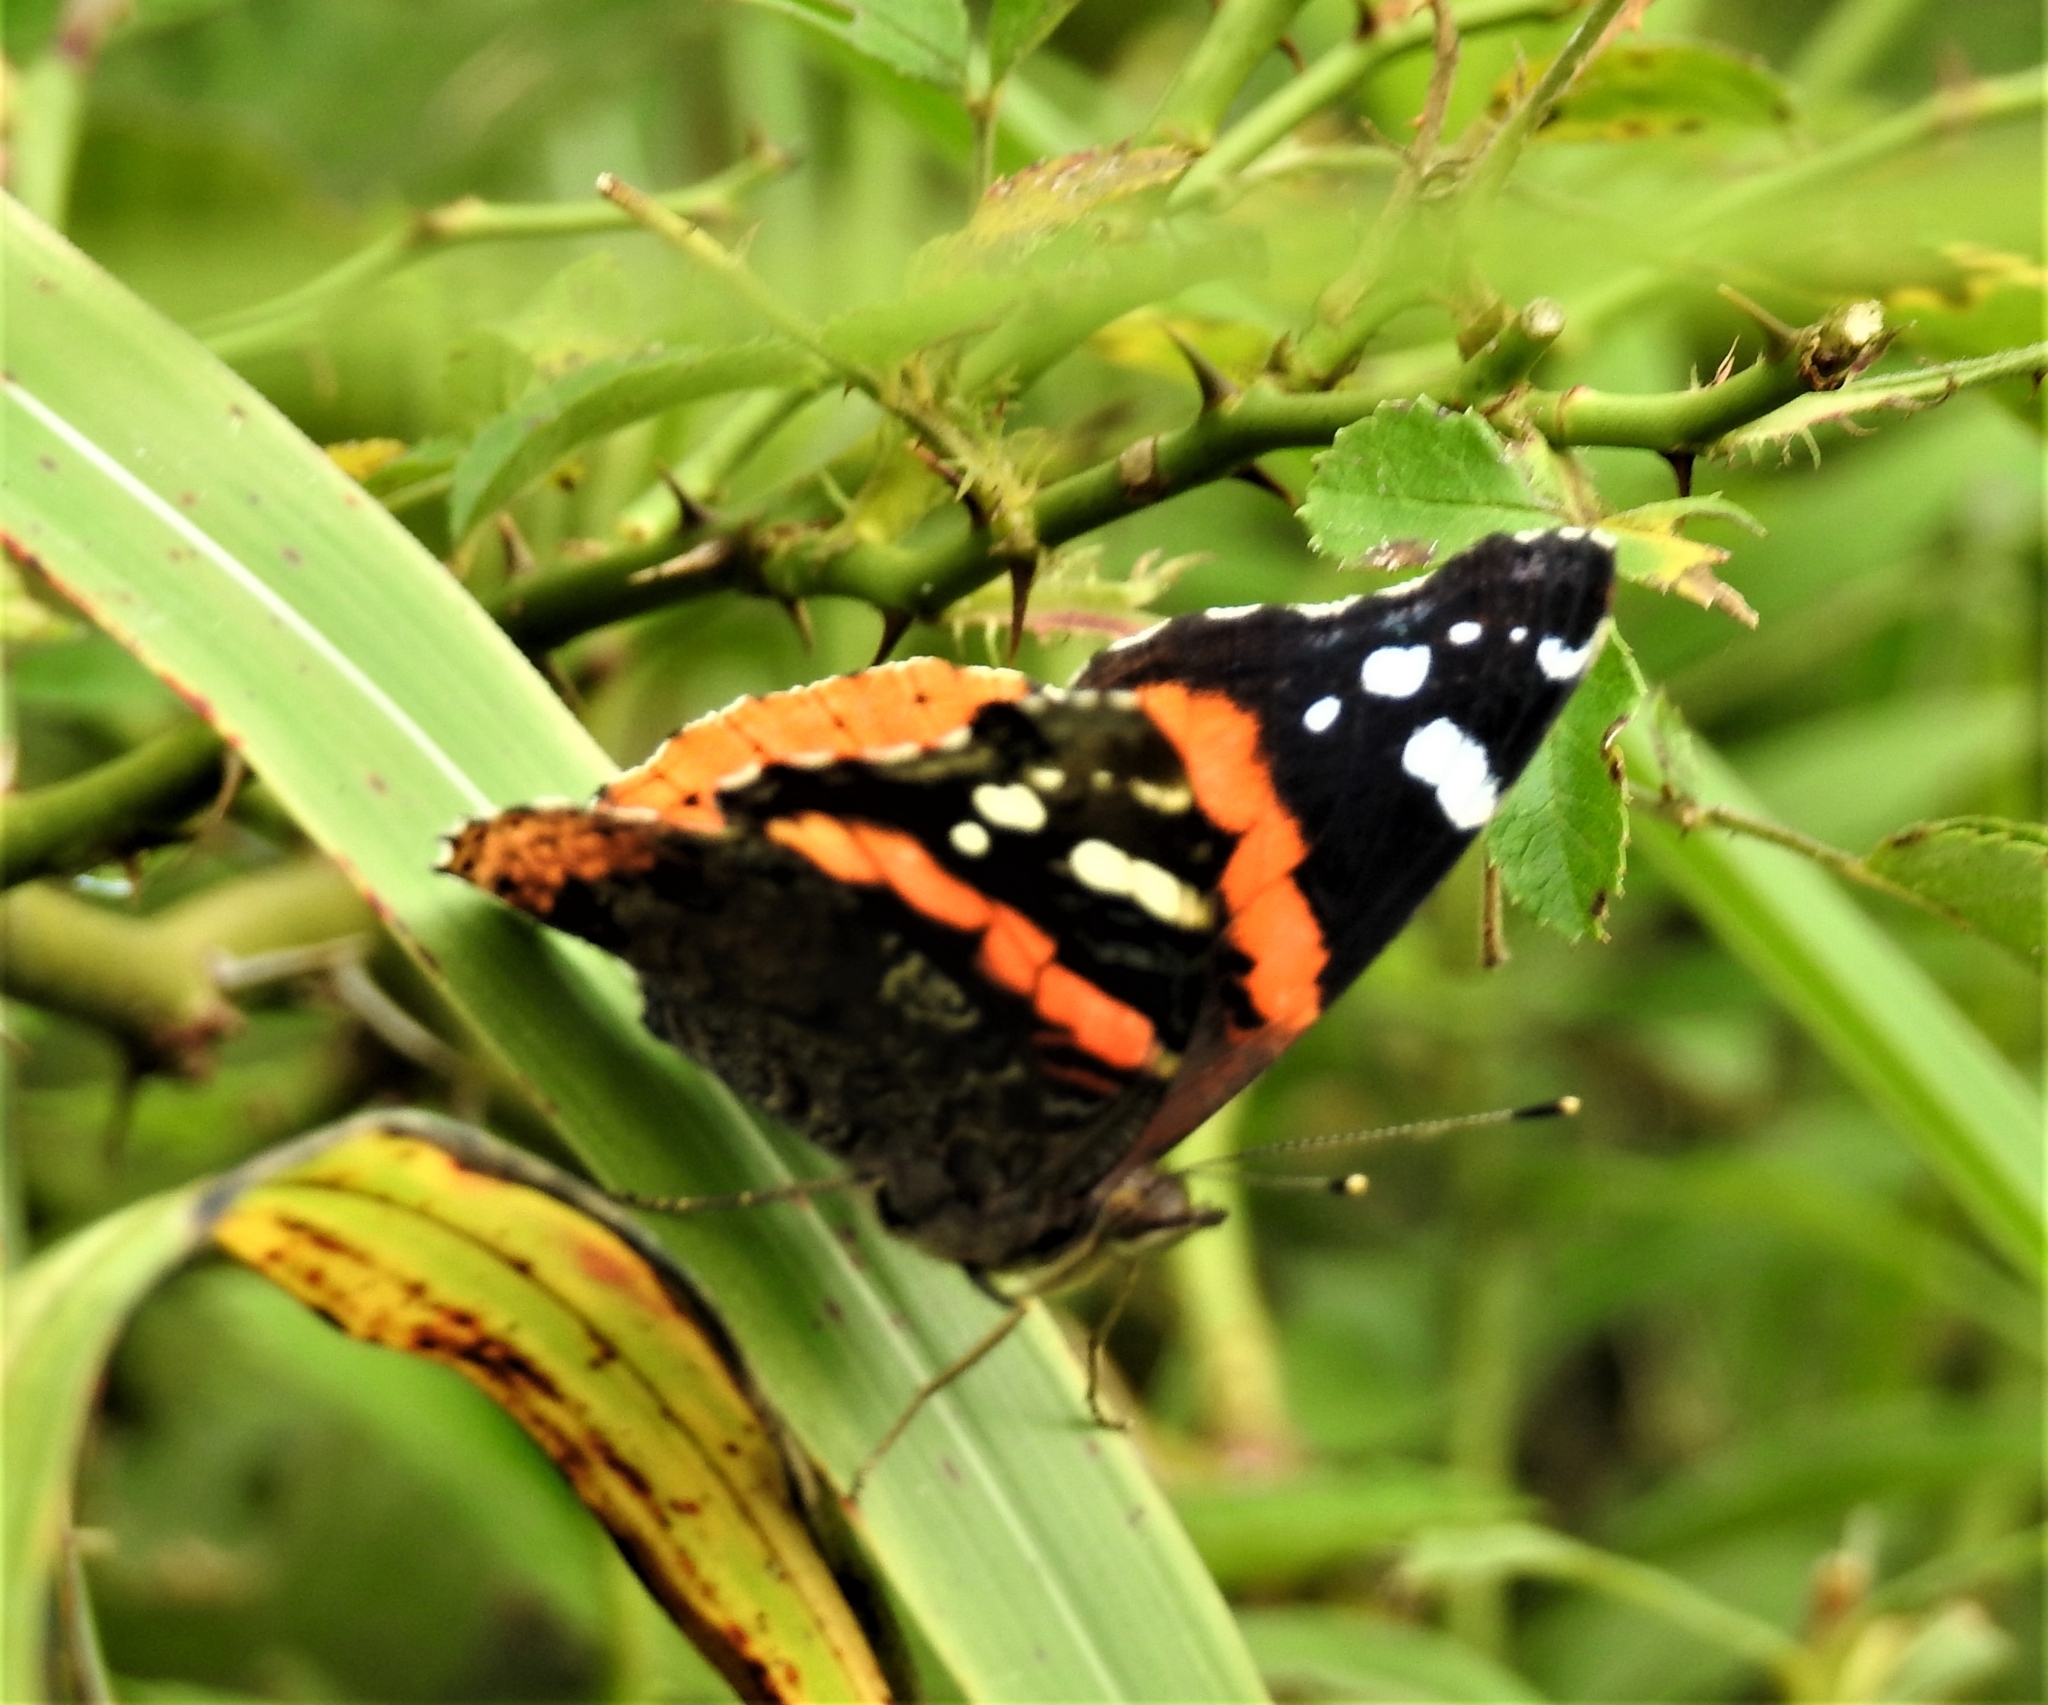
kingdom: Animalia
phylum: Arthropoda
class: Insecta
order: Lepidoptera
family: Nymphalidae
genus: Vanessa
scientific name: Vanessa atalanta
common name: Red admiral
